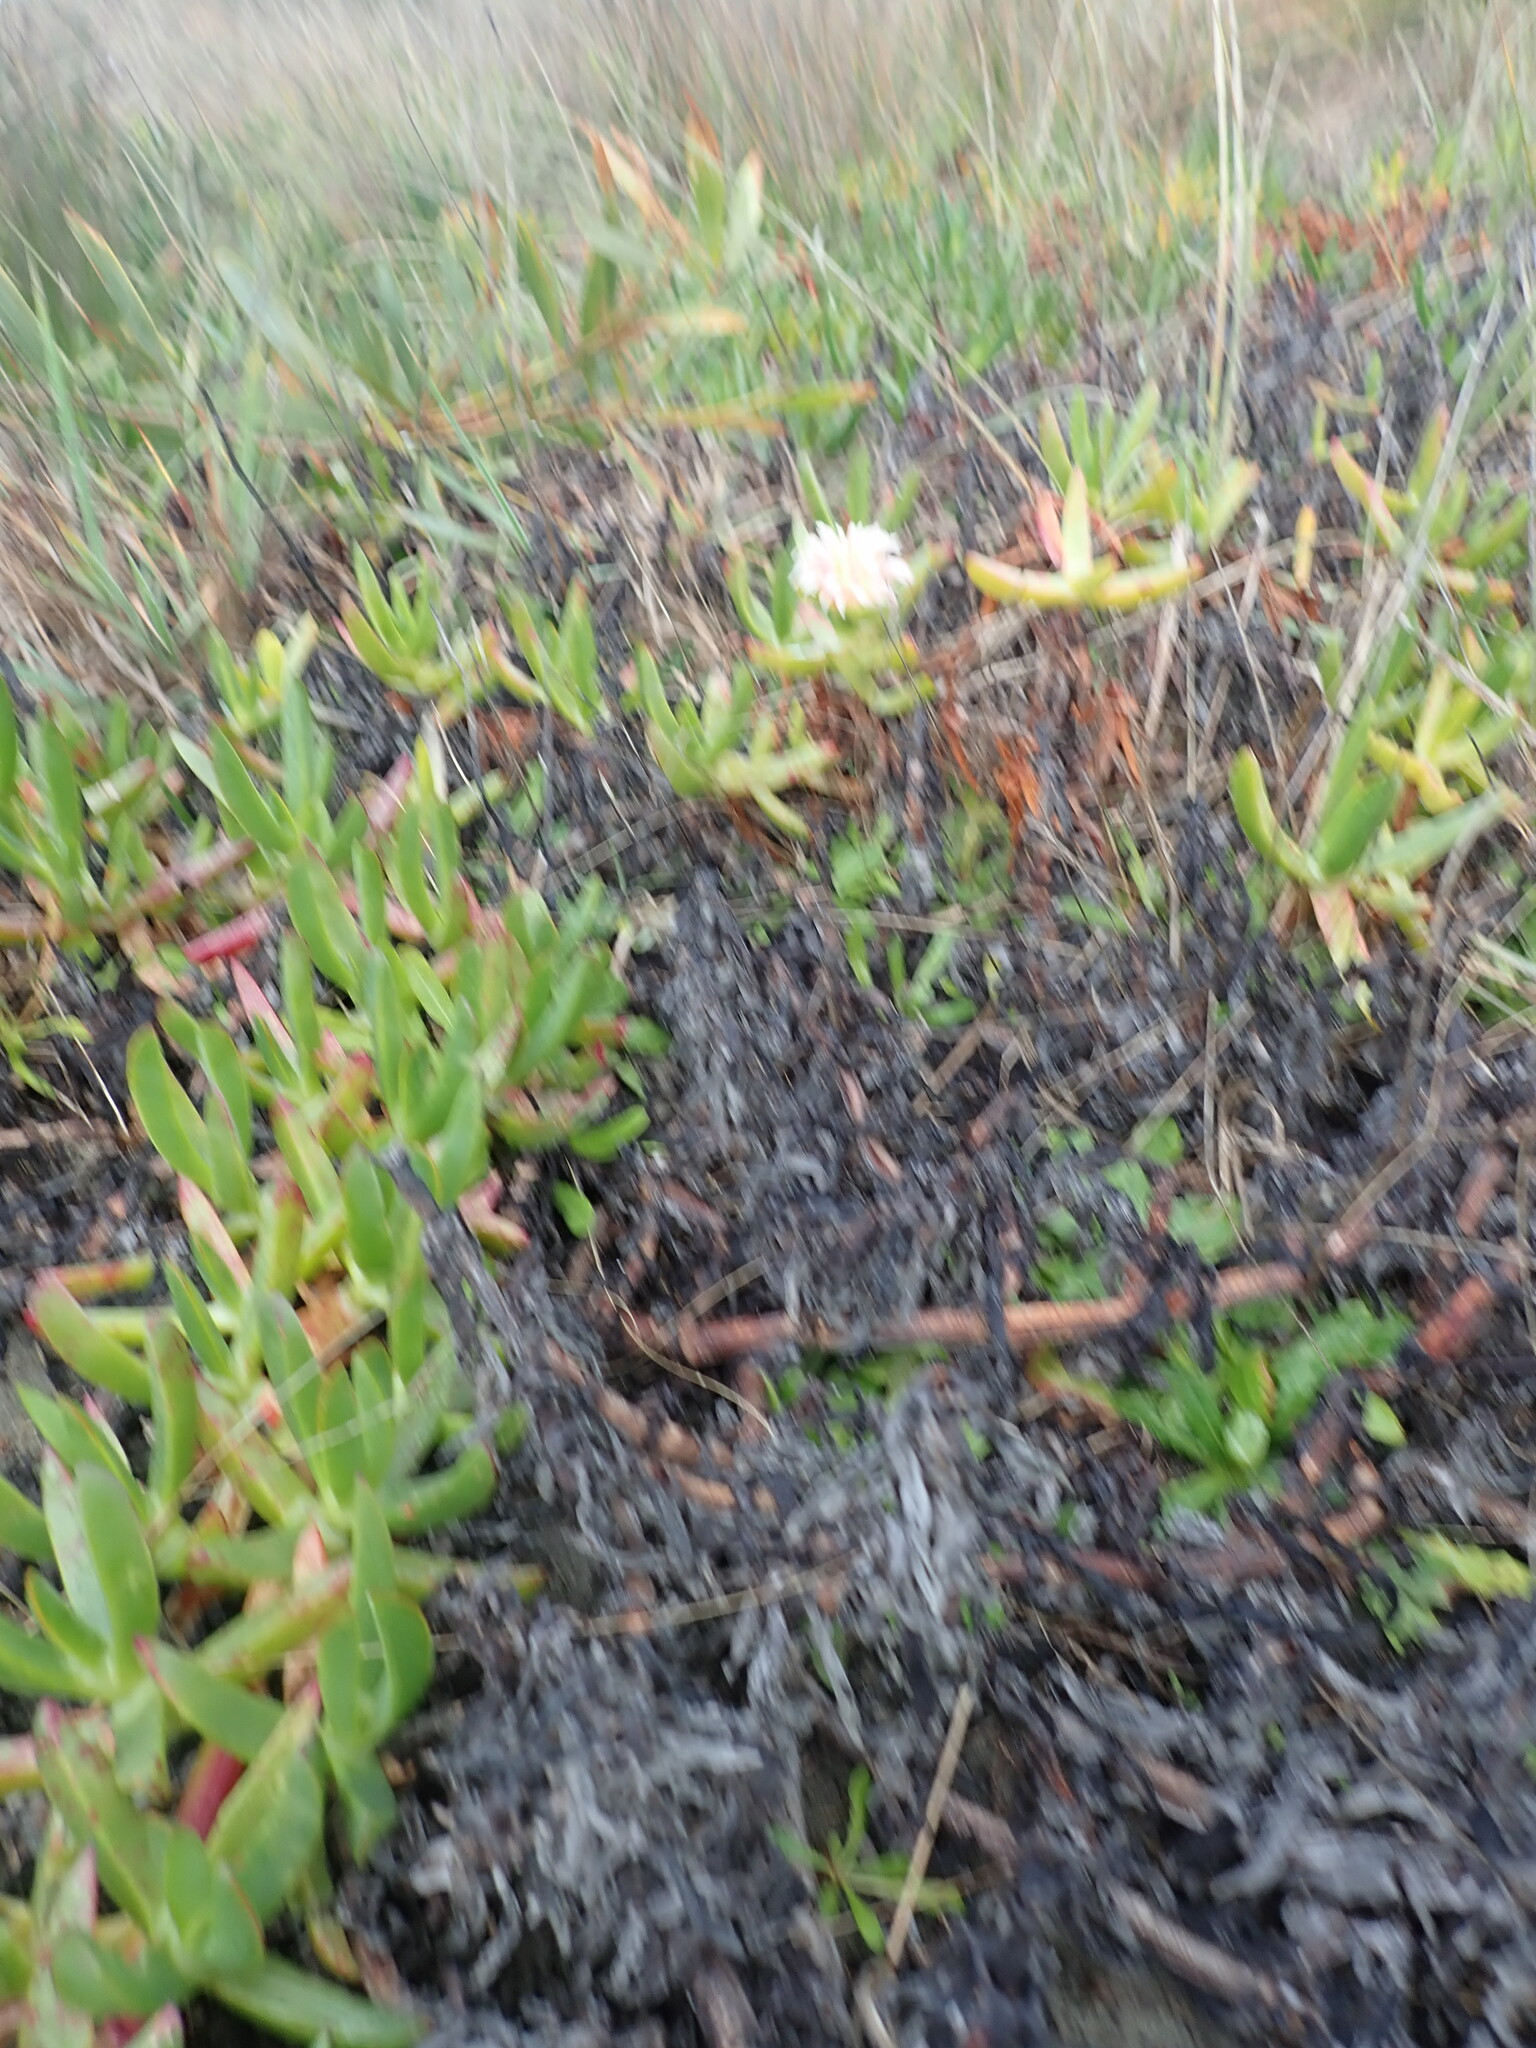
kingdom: Plantae
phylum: Tracheophyta
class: Magnoliopsida
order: Caryophyllales
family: Aizoaceae
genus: Carpobrotus
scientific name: Carpobrotus edulis
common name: Hottentot-fig
